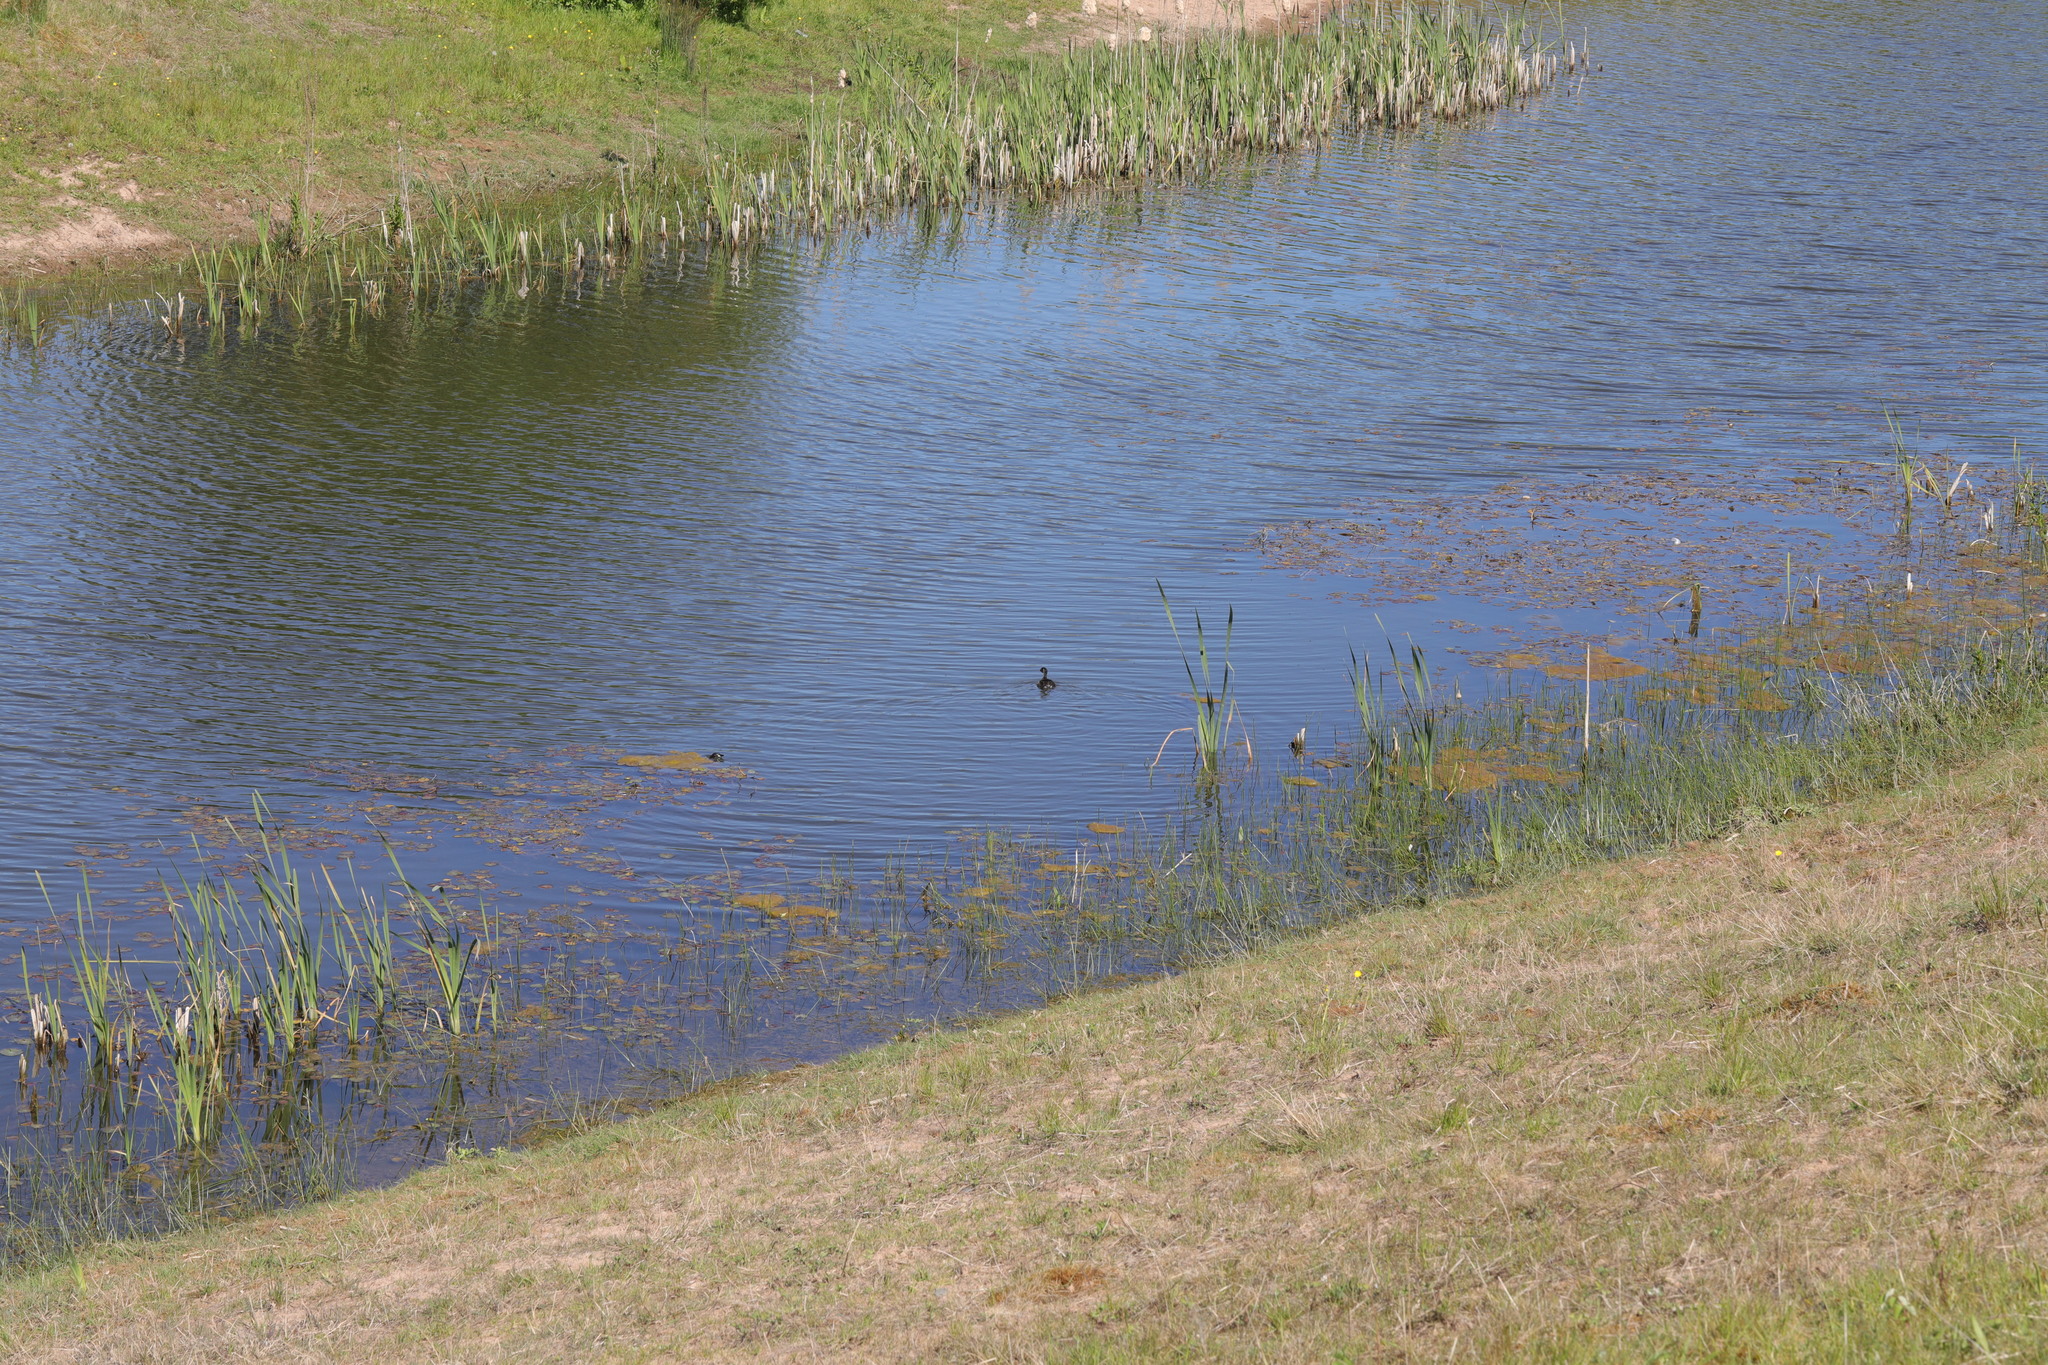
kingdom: Animalia
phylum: Chordata
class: Aves
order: Podicipediformes
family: Podicipedidae
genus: Tachybaptus
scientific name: Tachybaptus ruficollis
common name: Little grebe
